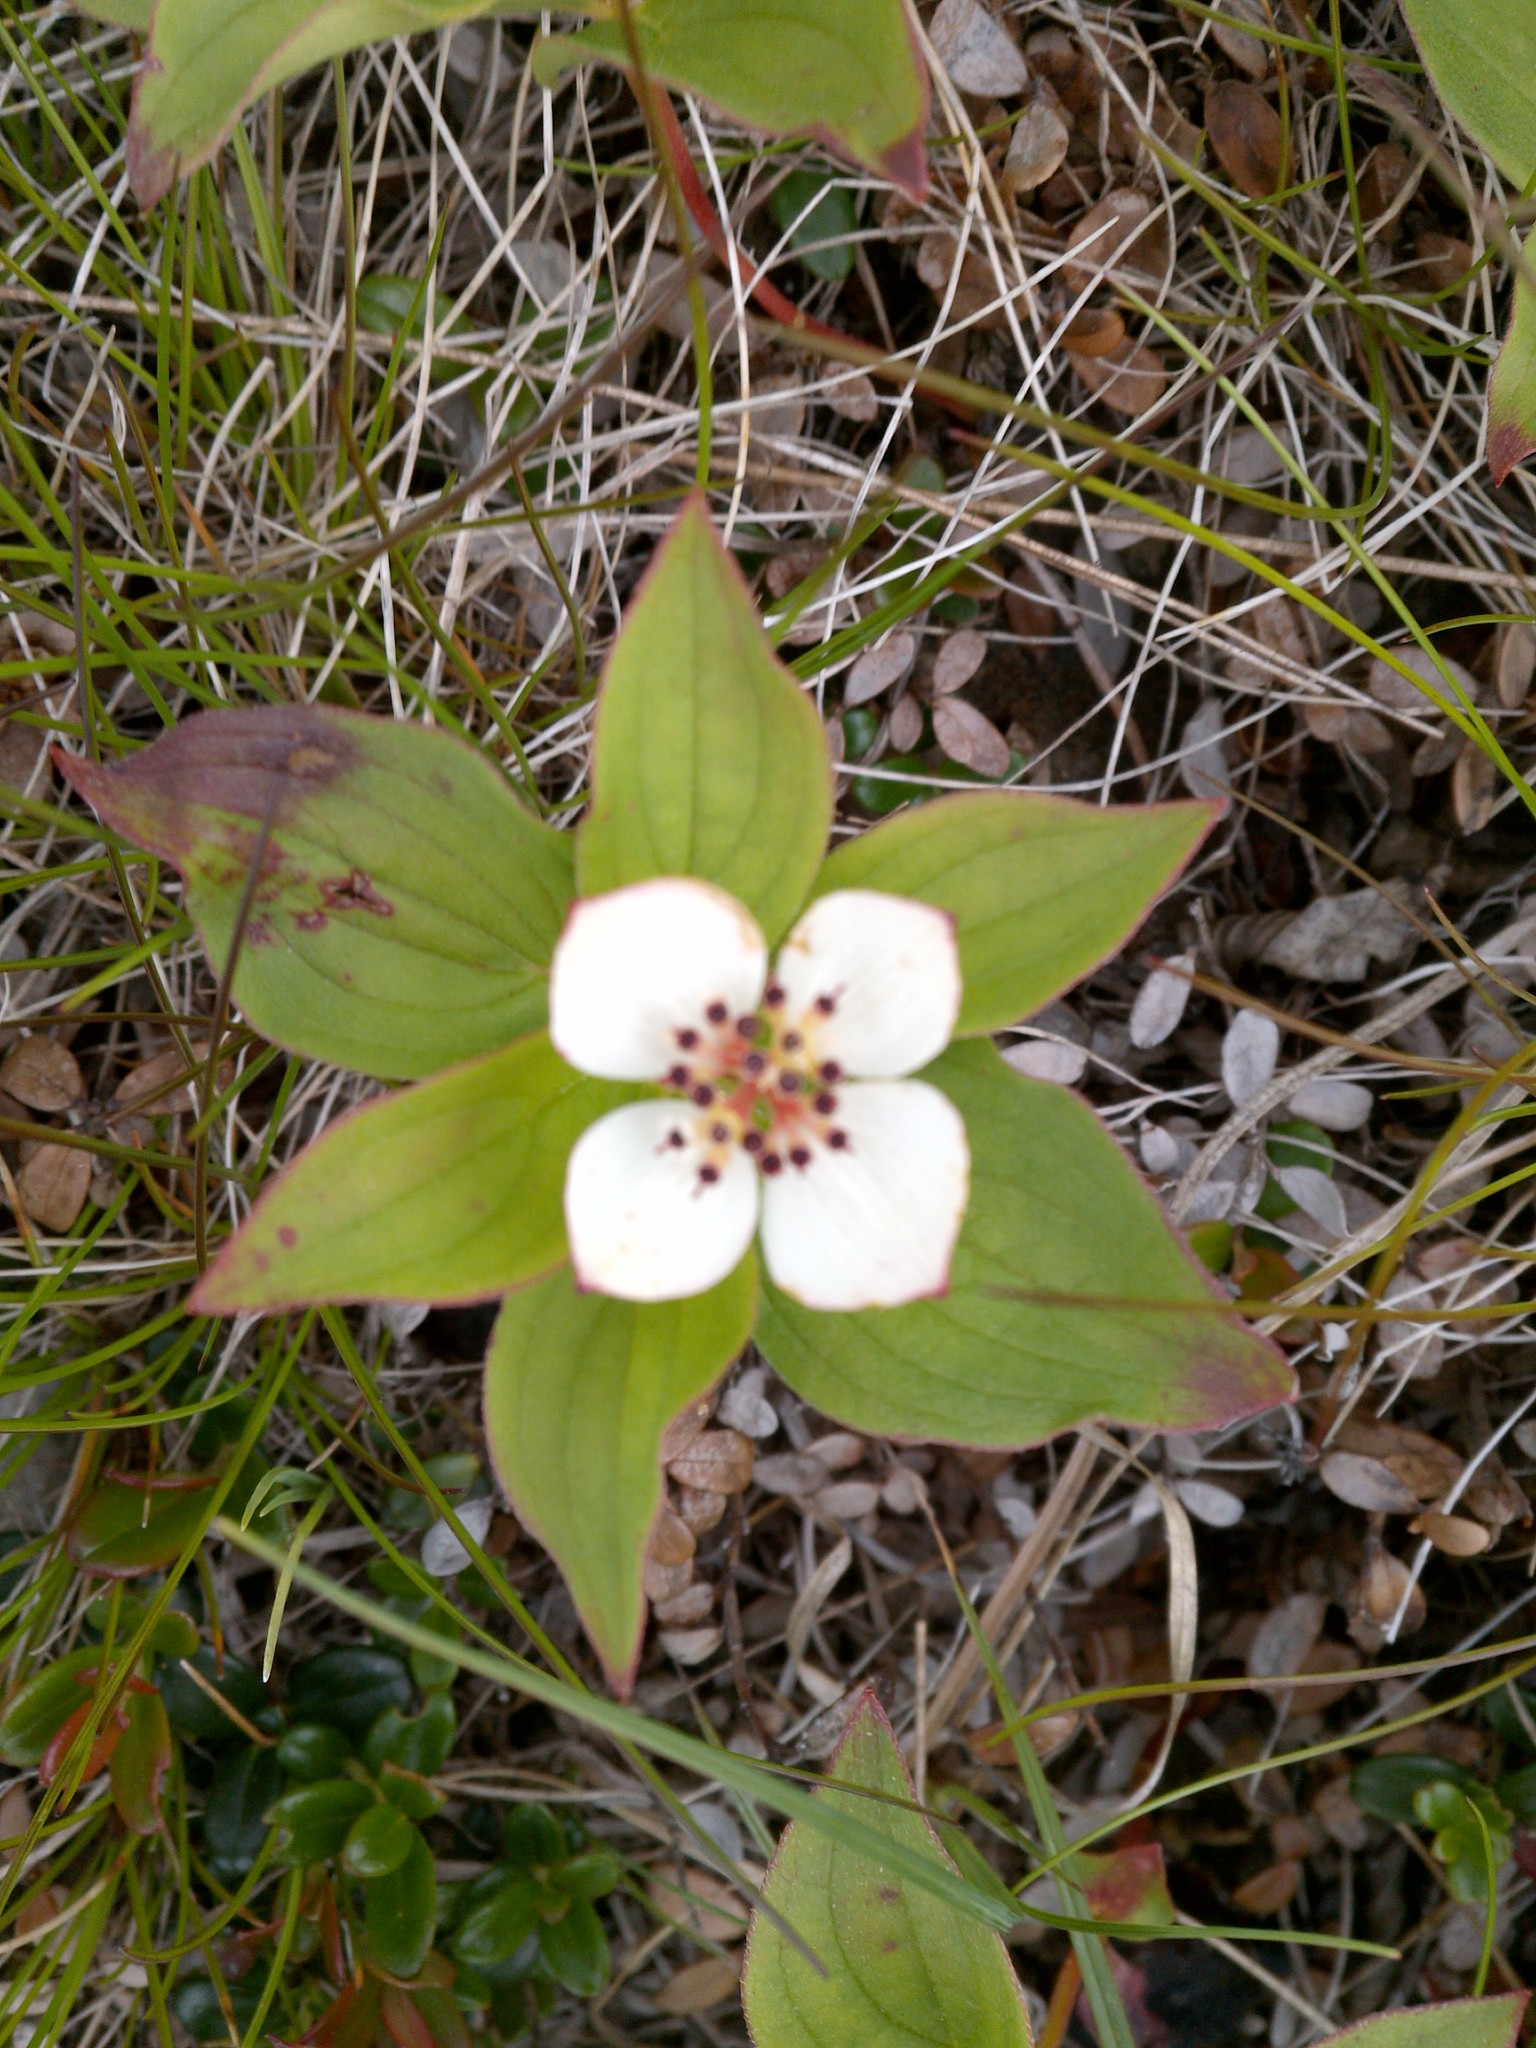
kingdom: Plantae
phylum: Tracheophyta
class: Magnoliopsida
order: Cornales
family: Cornaceae
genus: Cornus
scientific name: Cornus canadensis
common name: Creeping dogwood
